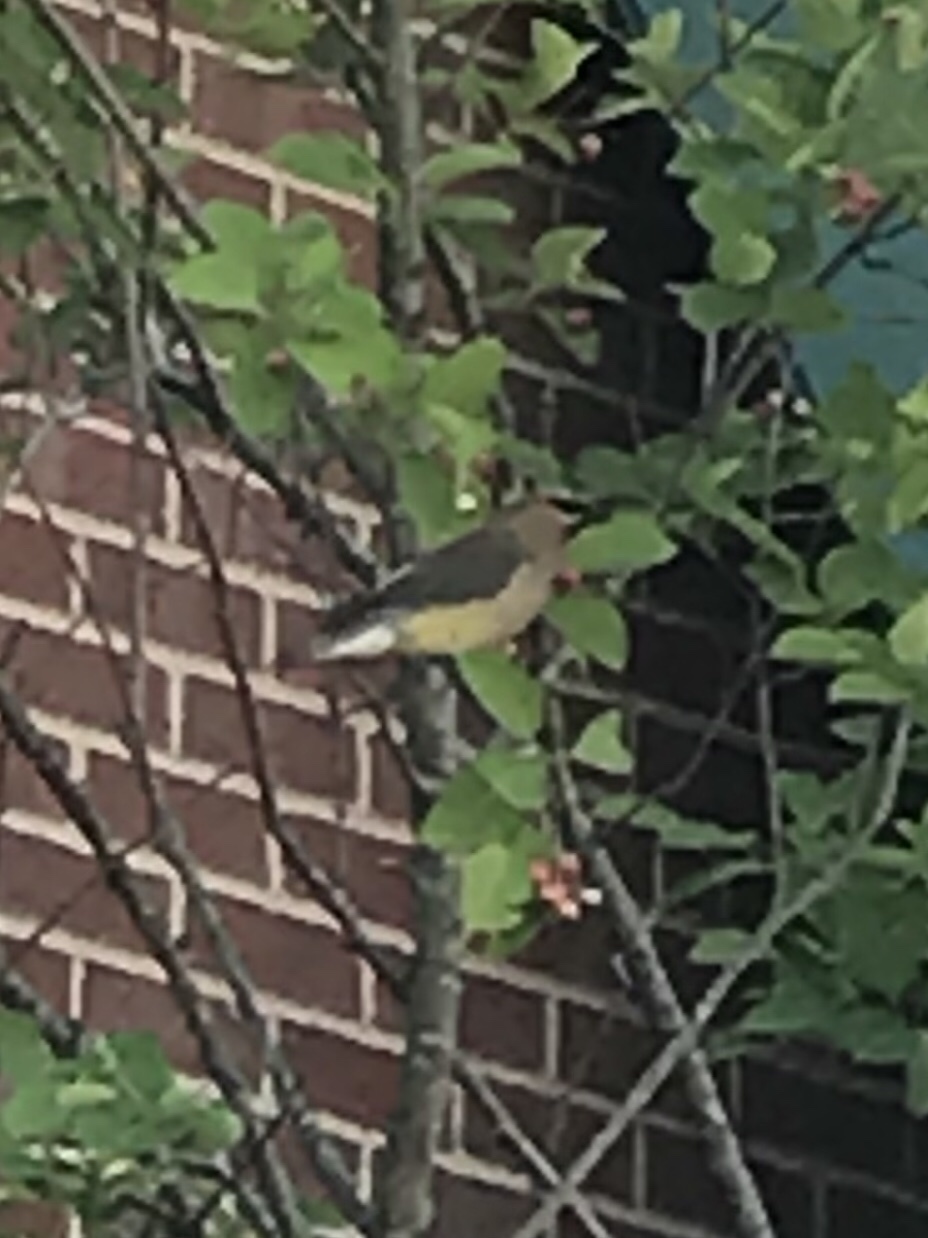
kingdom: Animalia
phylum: Chordata
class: Aves
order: Passeriformes
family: Bombycillidae
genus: Bombycilla
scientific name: Bombycilla cedrorum
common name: Cedar waxwing
